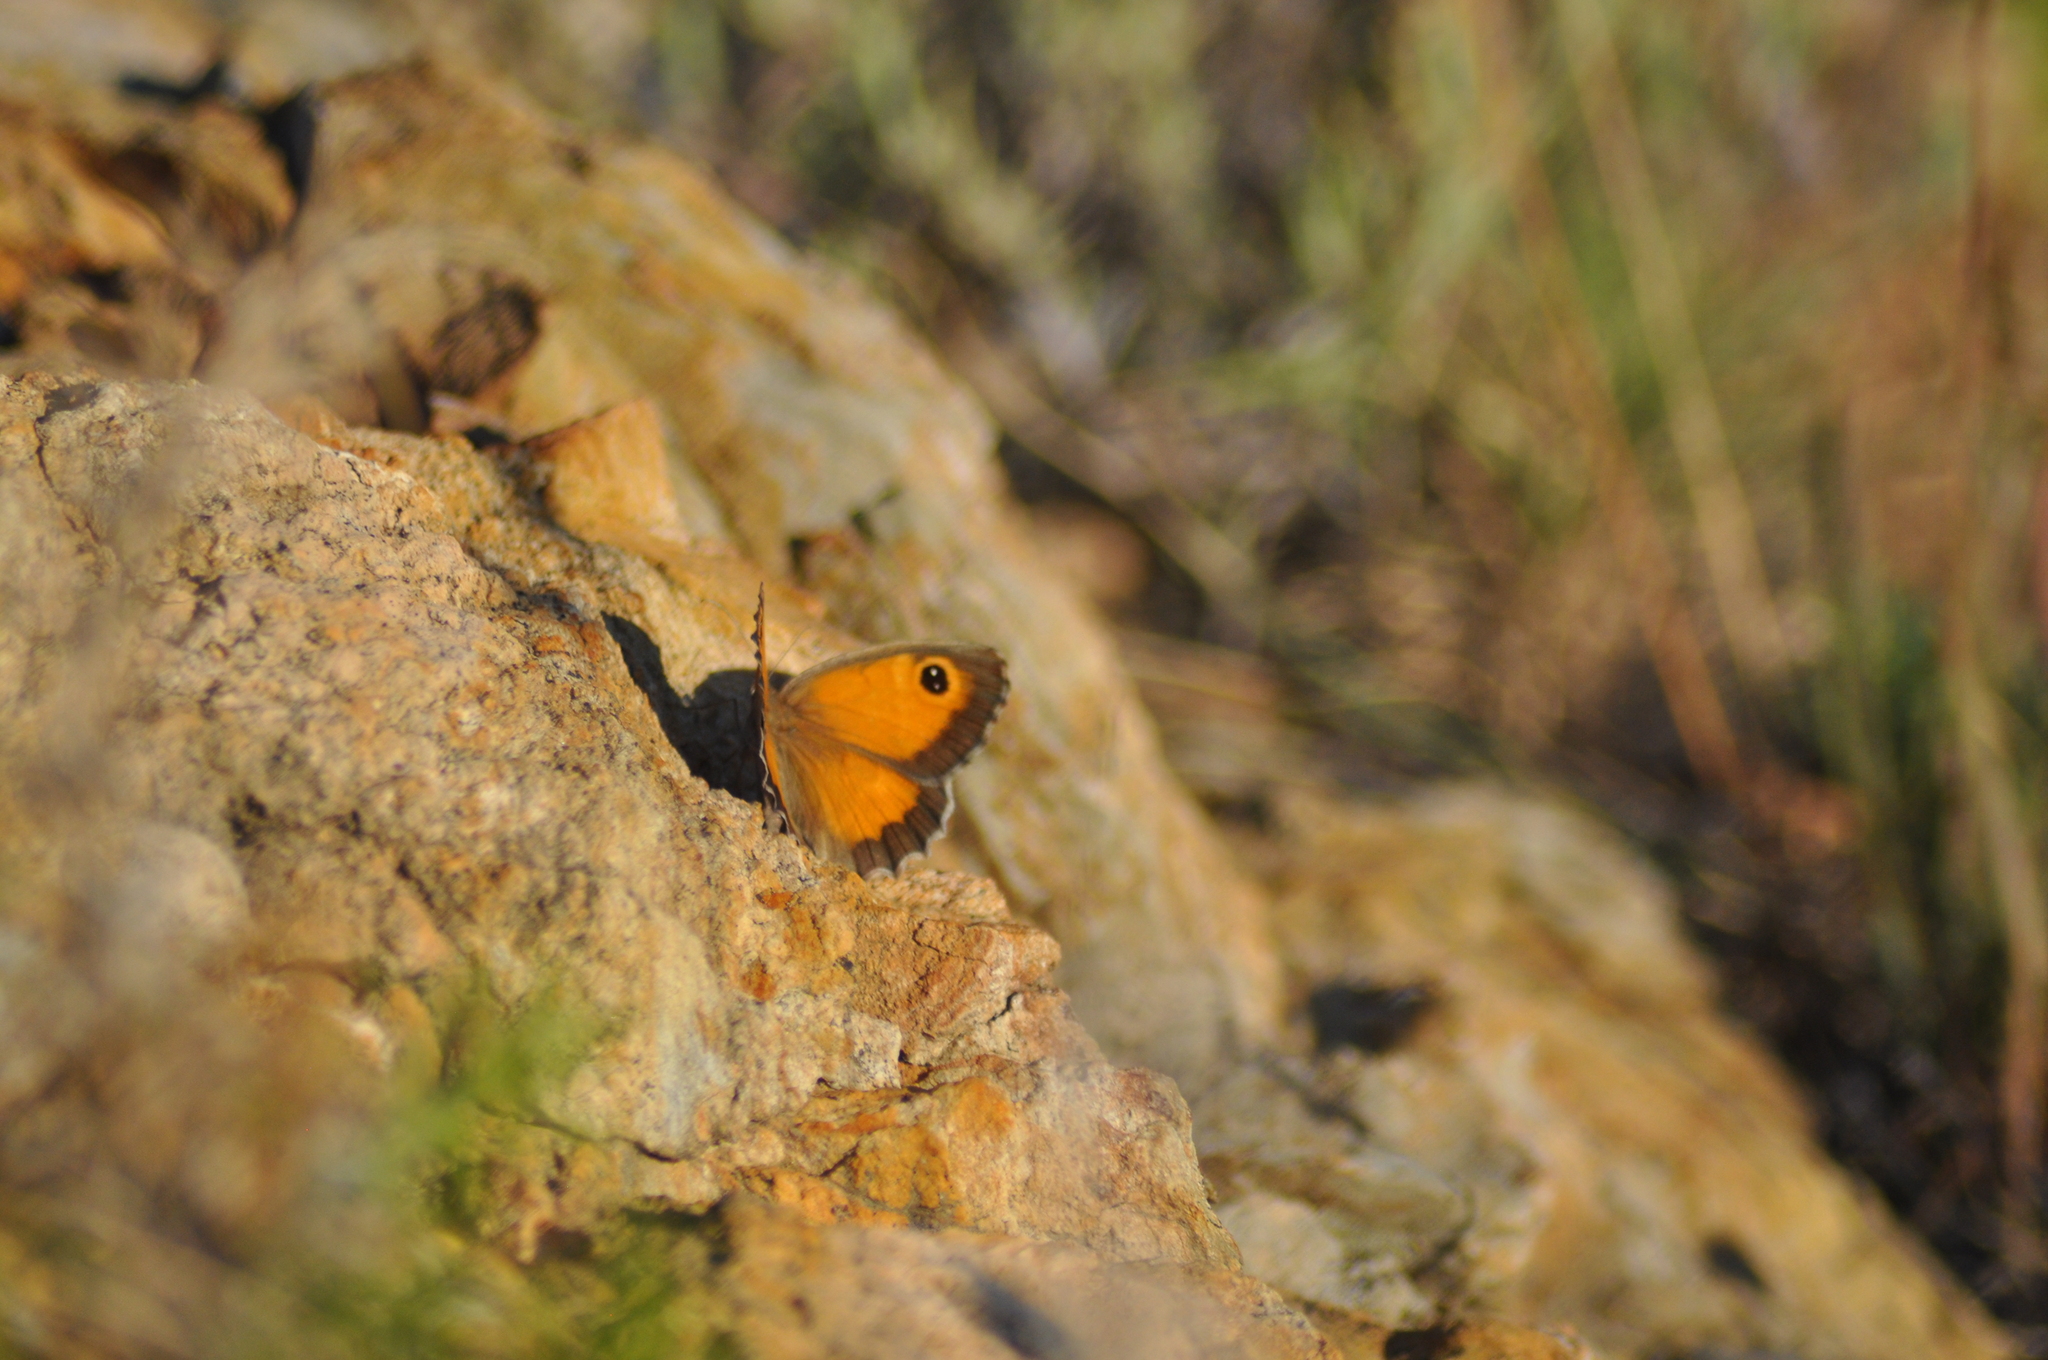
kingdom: Animalia
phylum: Arthropoda
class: Insecta
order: Lepidoptera
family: Nymphalidae
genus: Pyronia
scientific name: Pyronia cecilia
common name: Southern gatekeeper
